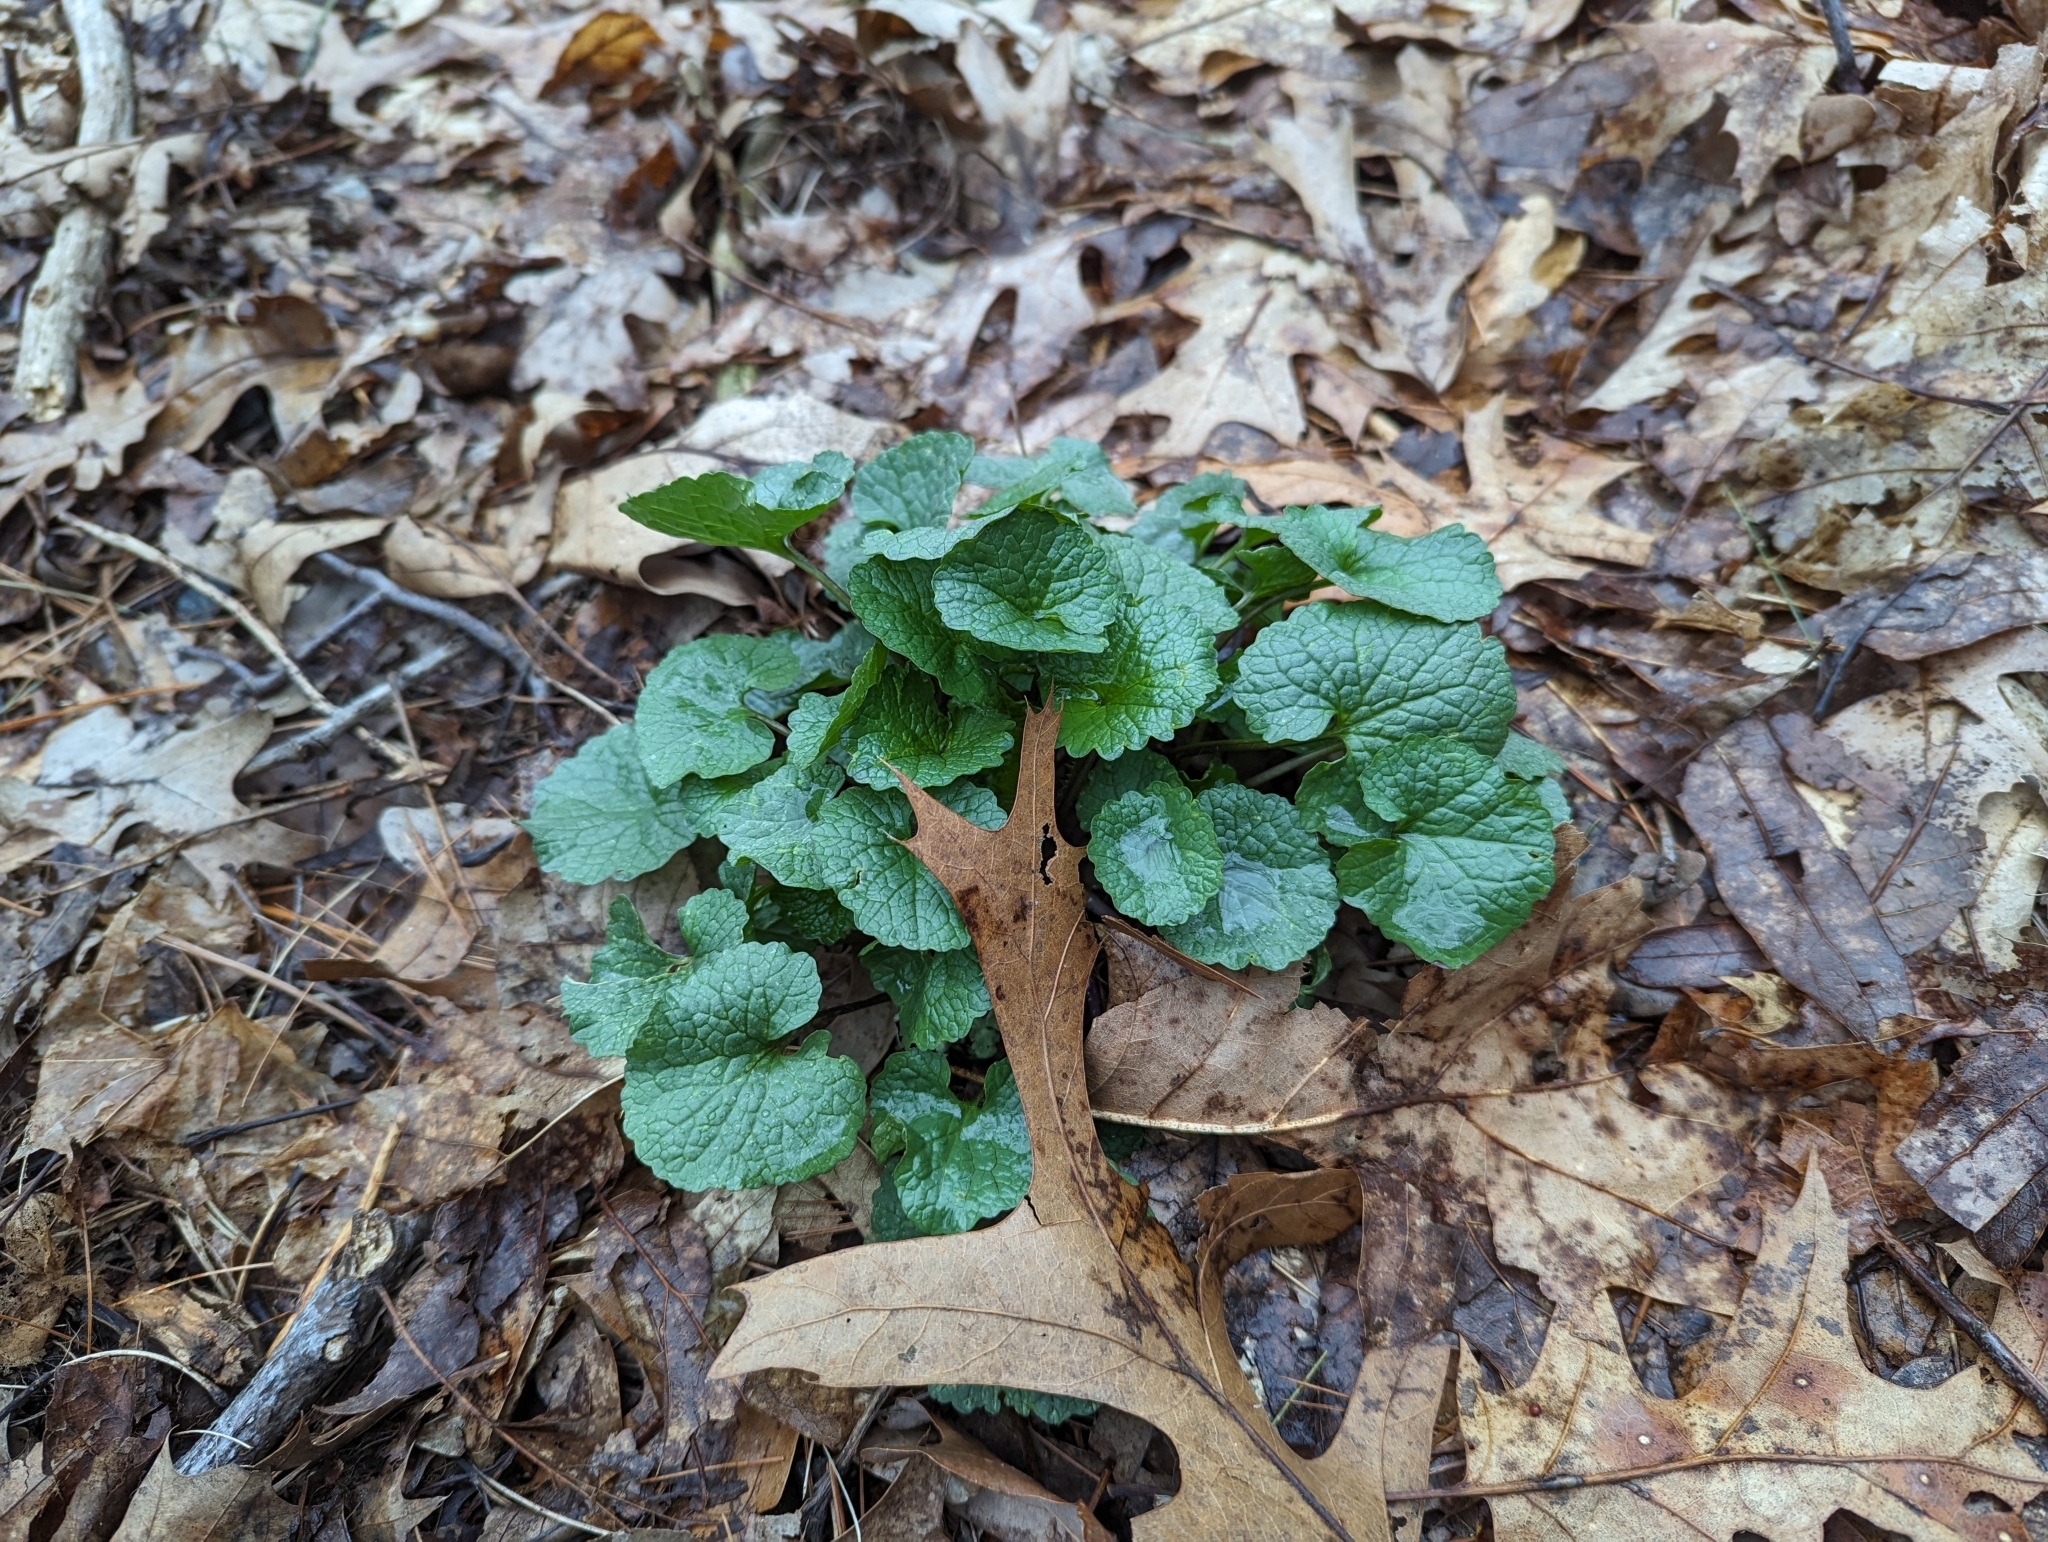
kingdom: Plantae
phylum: Tracheophyta
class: Magnoliopsida
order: Brassicales
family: Brassicaceae
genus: Alliaria
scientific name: Alliaria petiolata
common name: Garlic mustard
